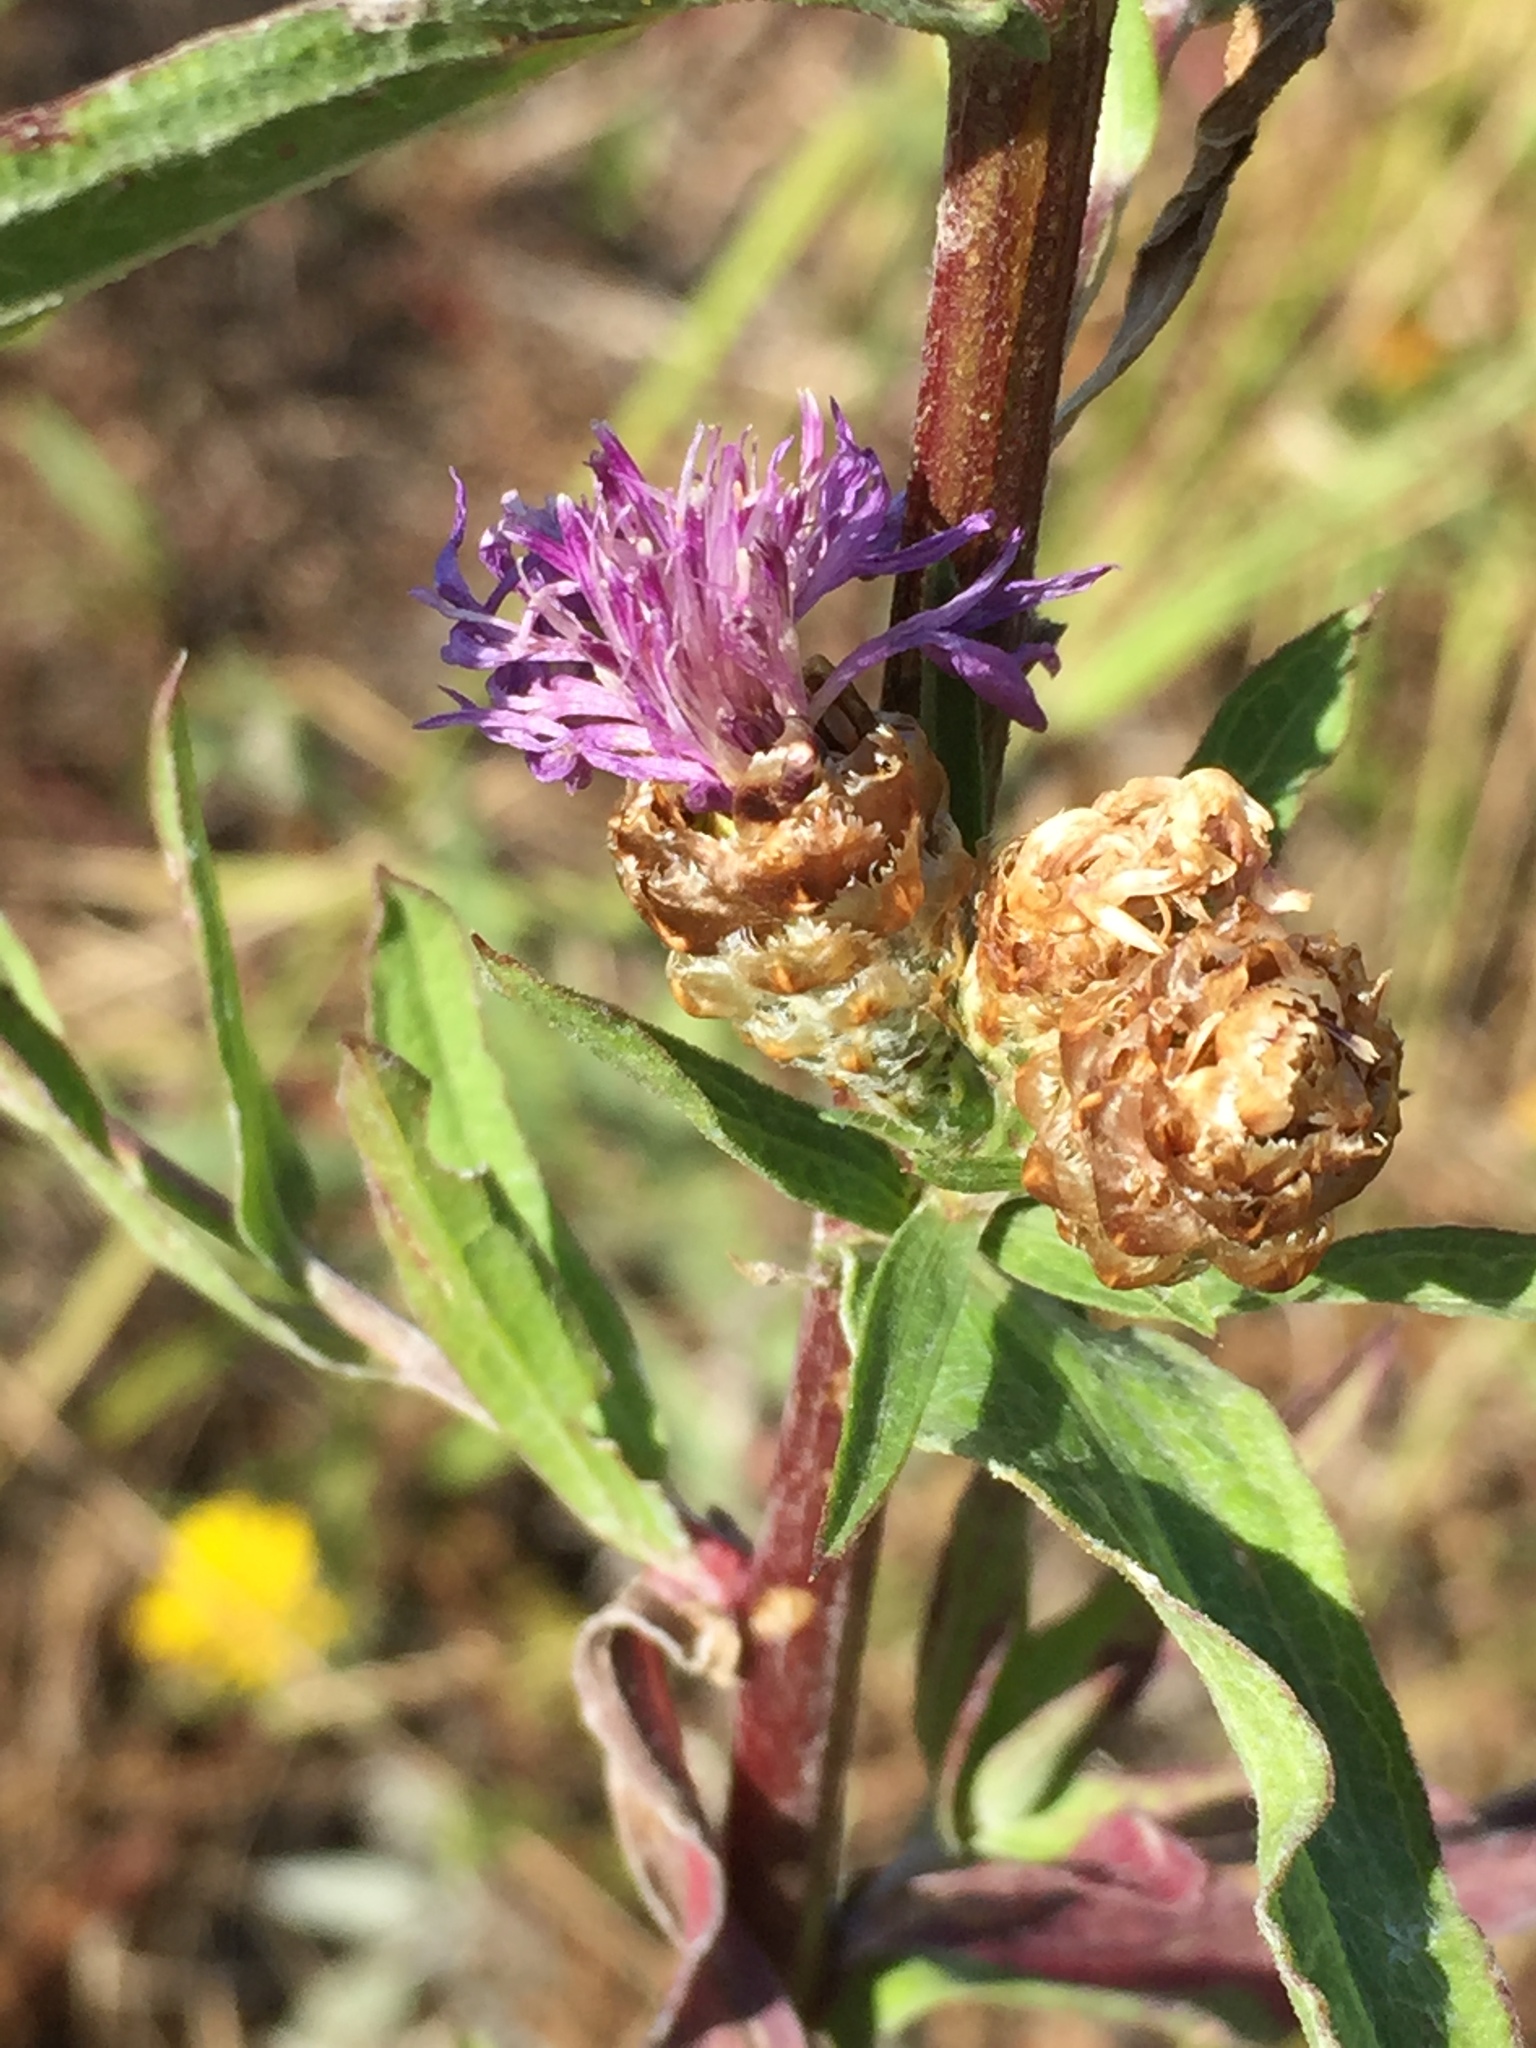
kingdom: Plantae
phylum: Tracheophyta
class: Magnoliopsida
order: Asterales
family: Asteraceae
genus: Centaurea
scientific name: Centaurea jacea
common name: Brown knapweed
